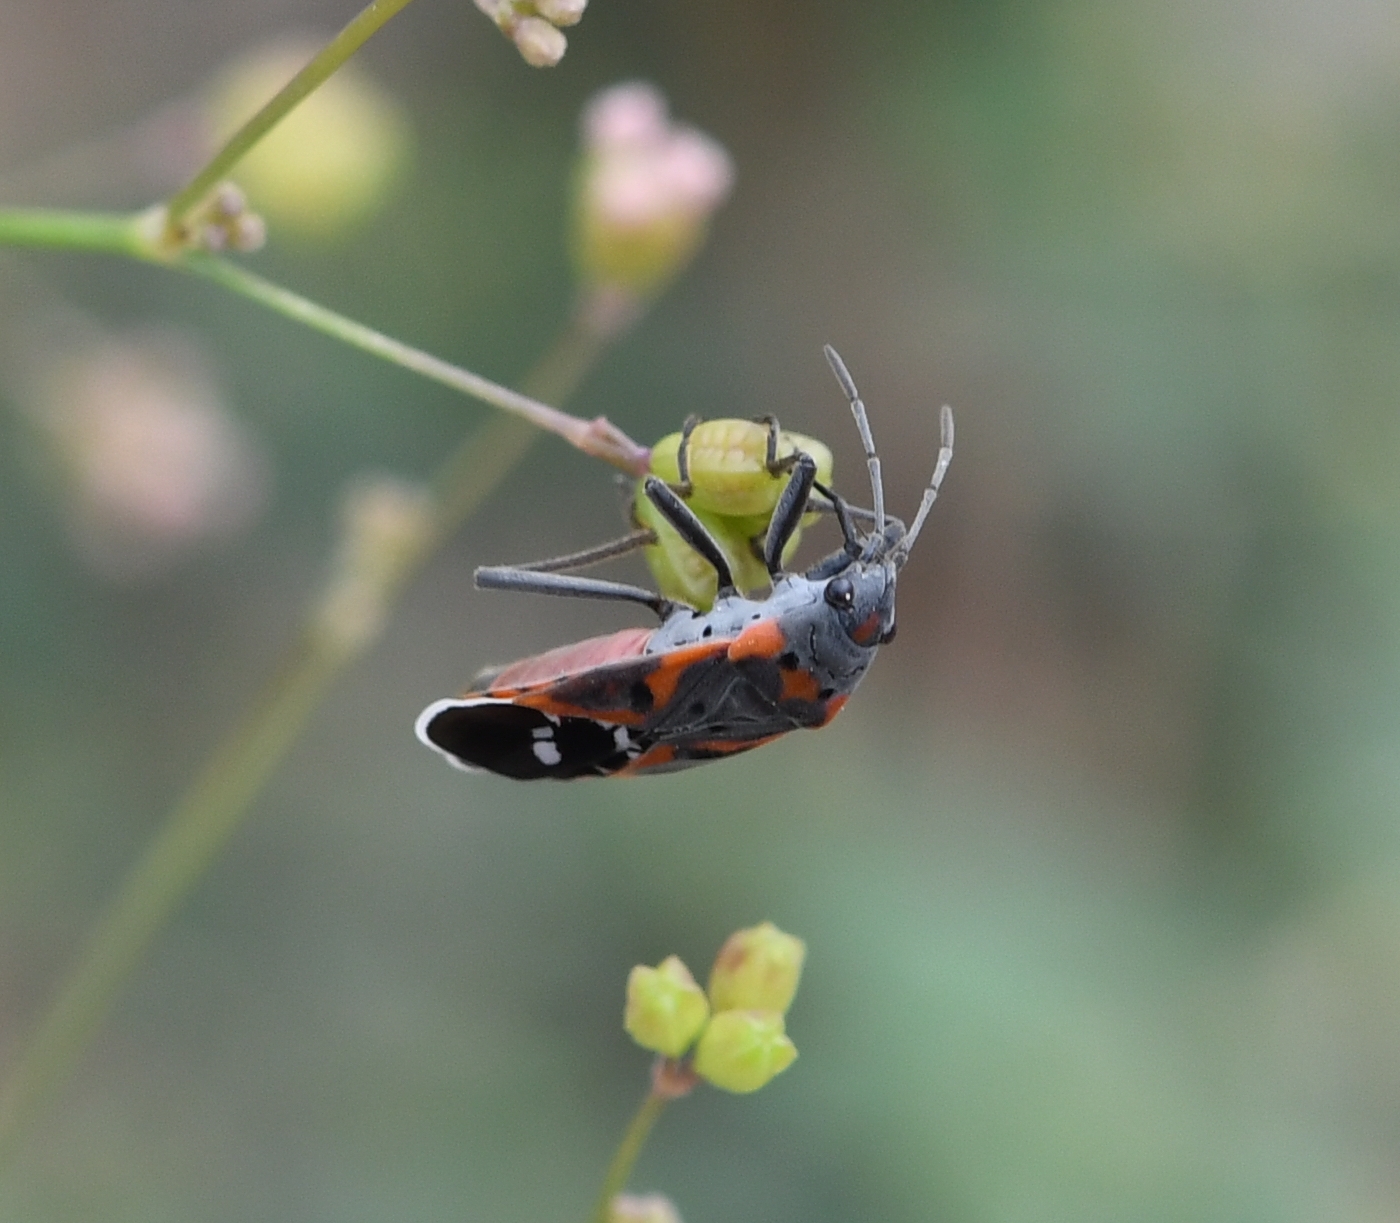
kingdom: Animalia
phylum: Arthropoda
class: Insecta
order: Hemiptera
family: Lygaeidae
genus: Lygaeus
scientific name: Lygaeus kalmii
